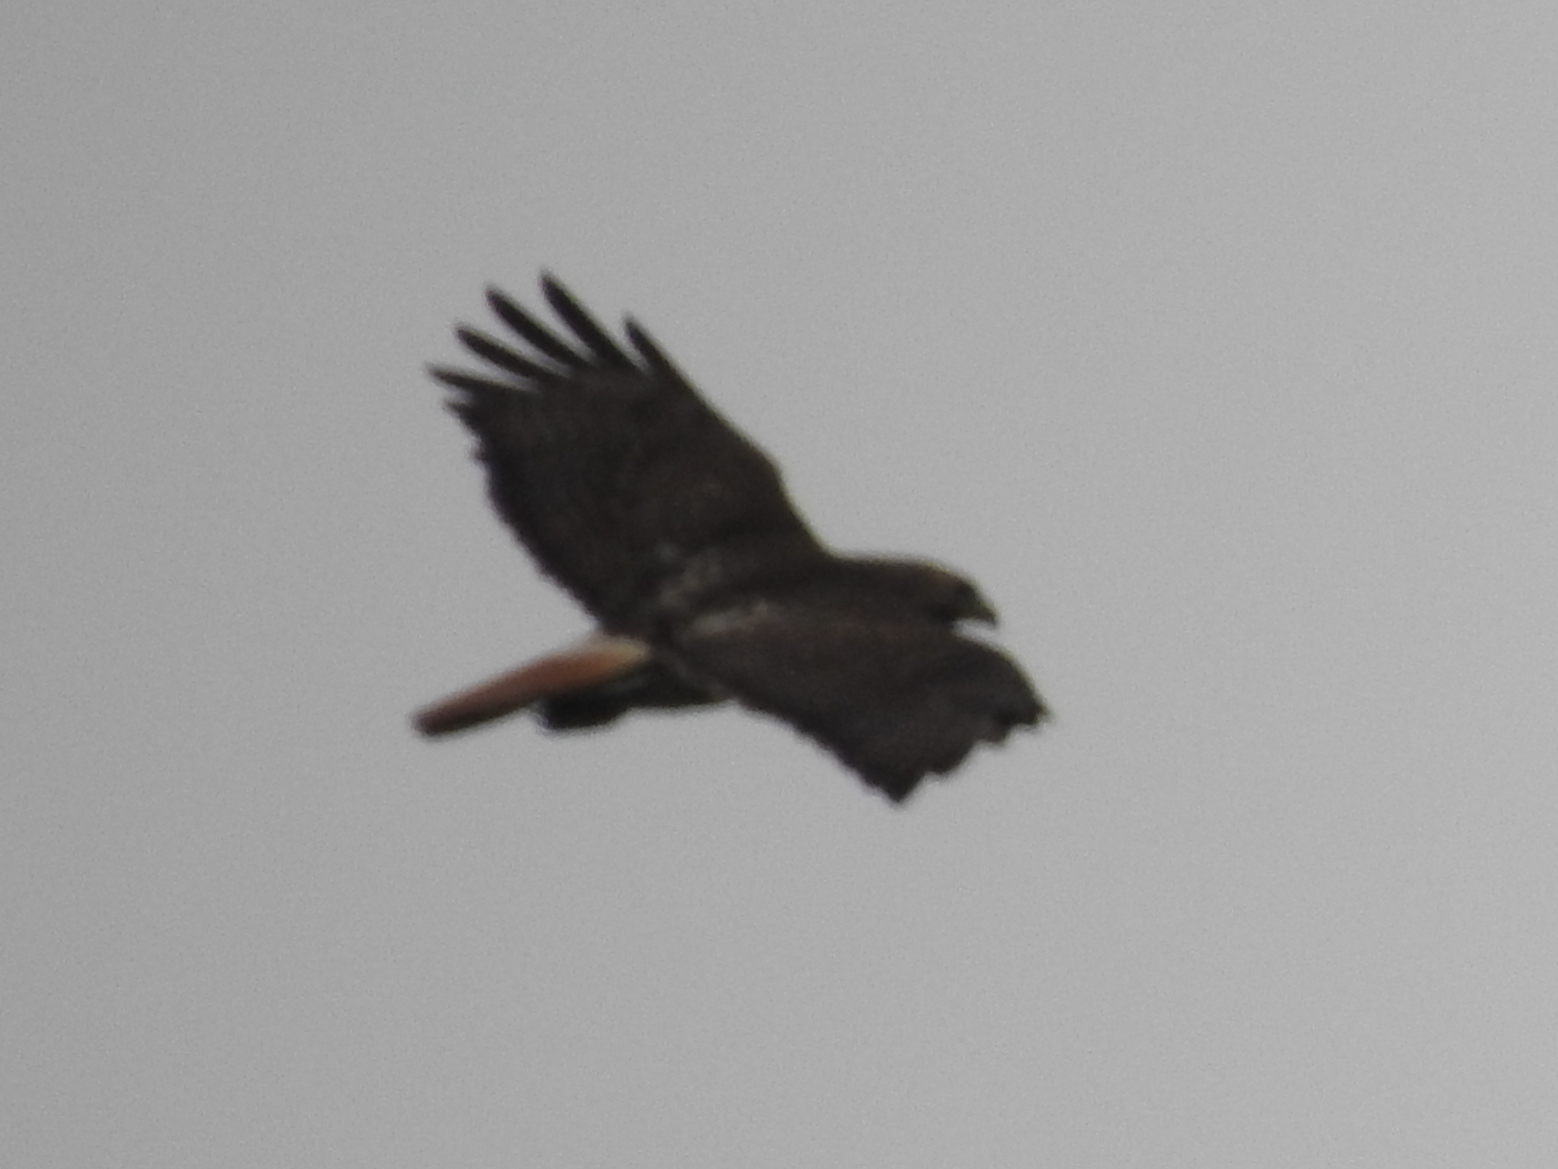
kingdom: Animalia
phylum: Chordata
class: Aves
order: Accipitriformes
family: Accipitridae
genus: Buteo
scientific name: Buteo jamaicensis
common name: Red-tailed hawk
